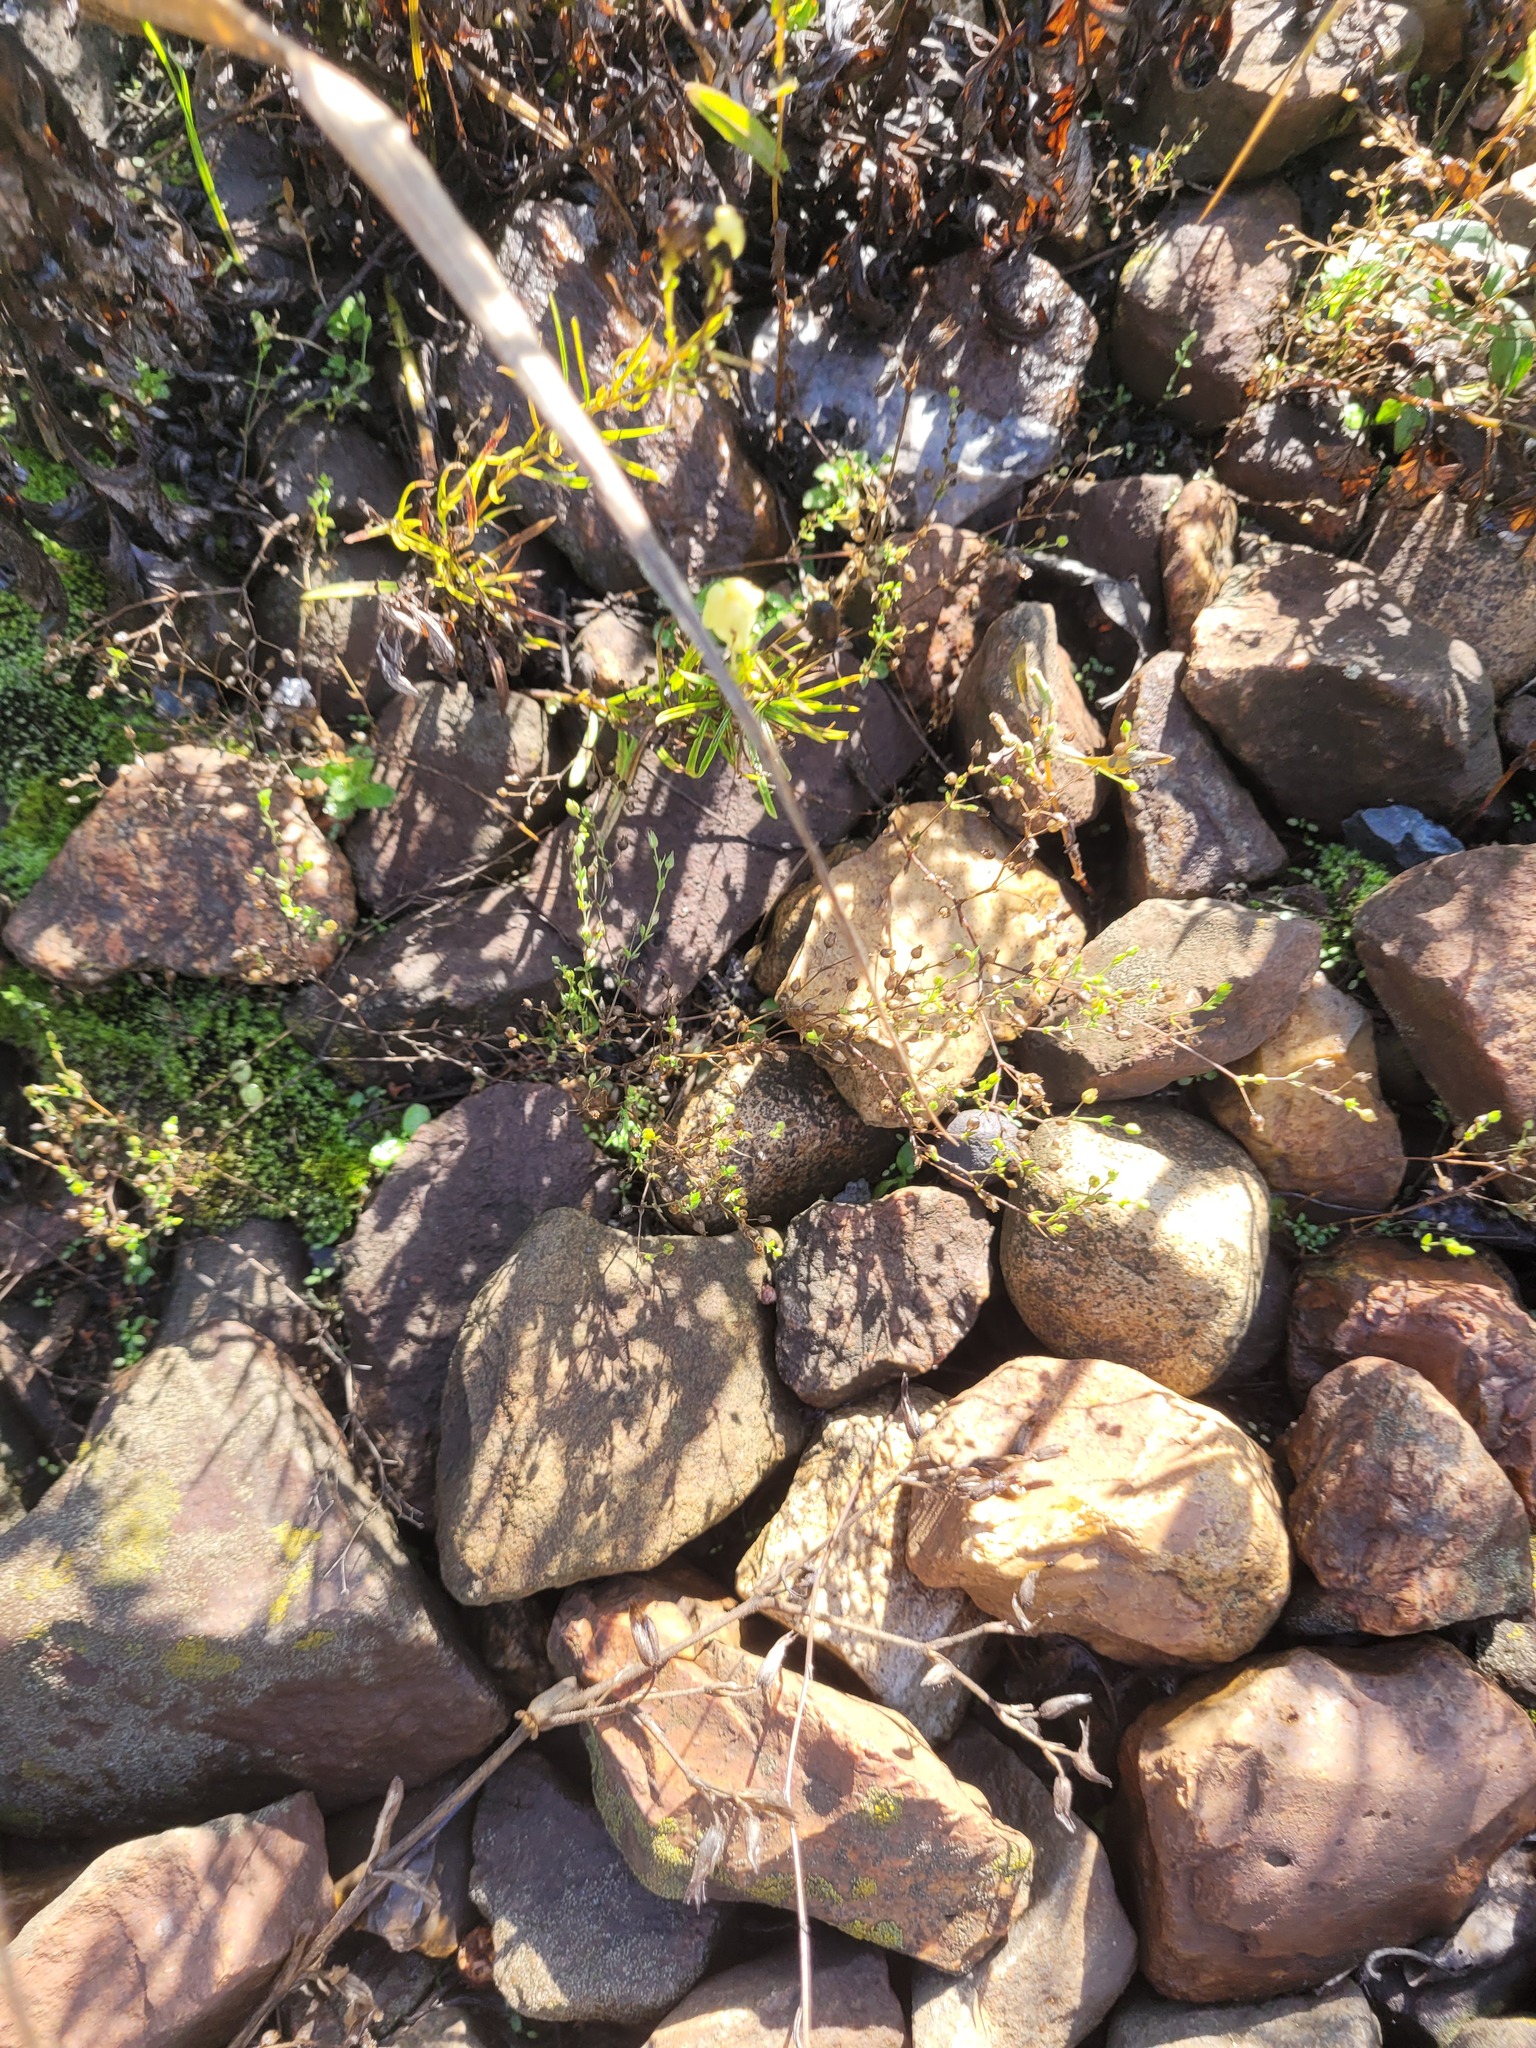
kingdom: Plantae
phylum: Tracheophyta
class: Magnoliopsida
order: Caryophyllales
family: Caryophyllaceae
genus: Arenaria
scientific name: Arenaria serpyllifolia
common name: Thyme-leaved sandwort
